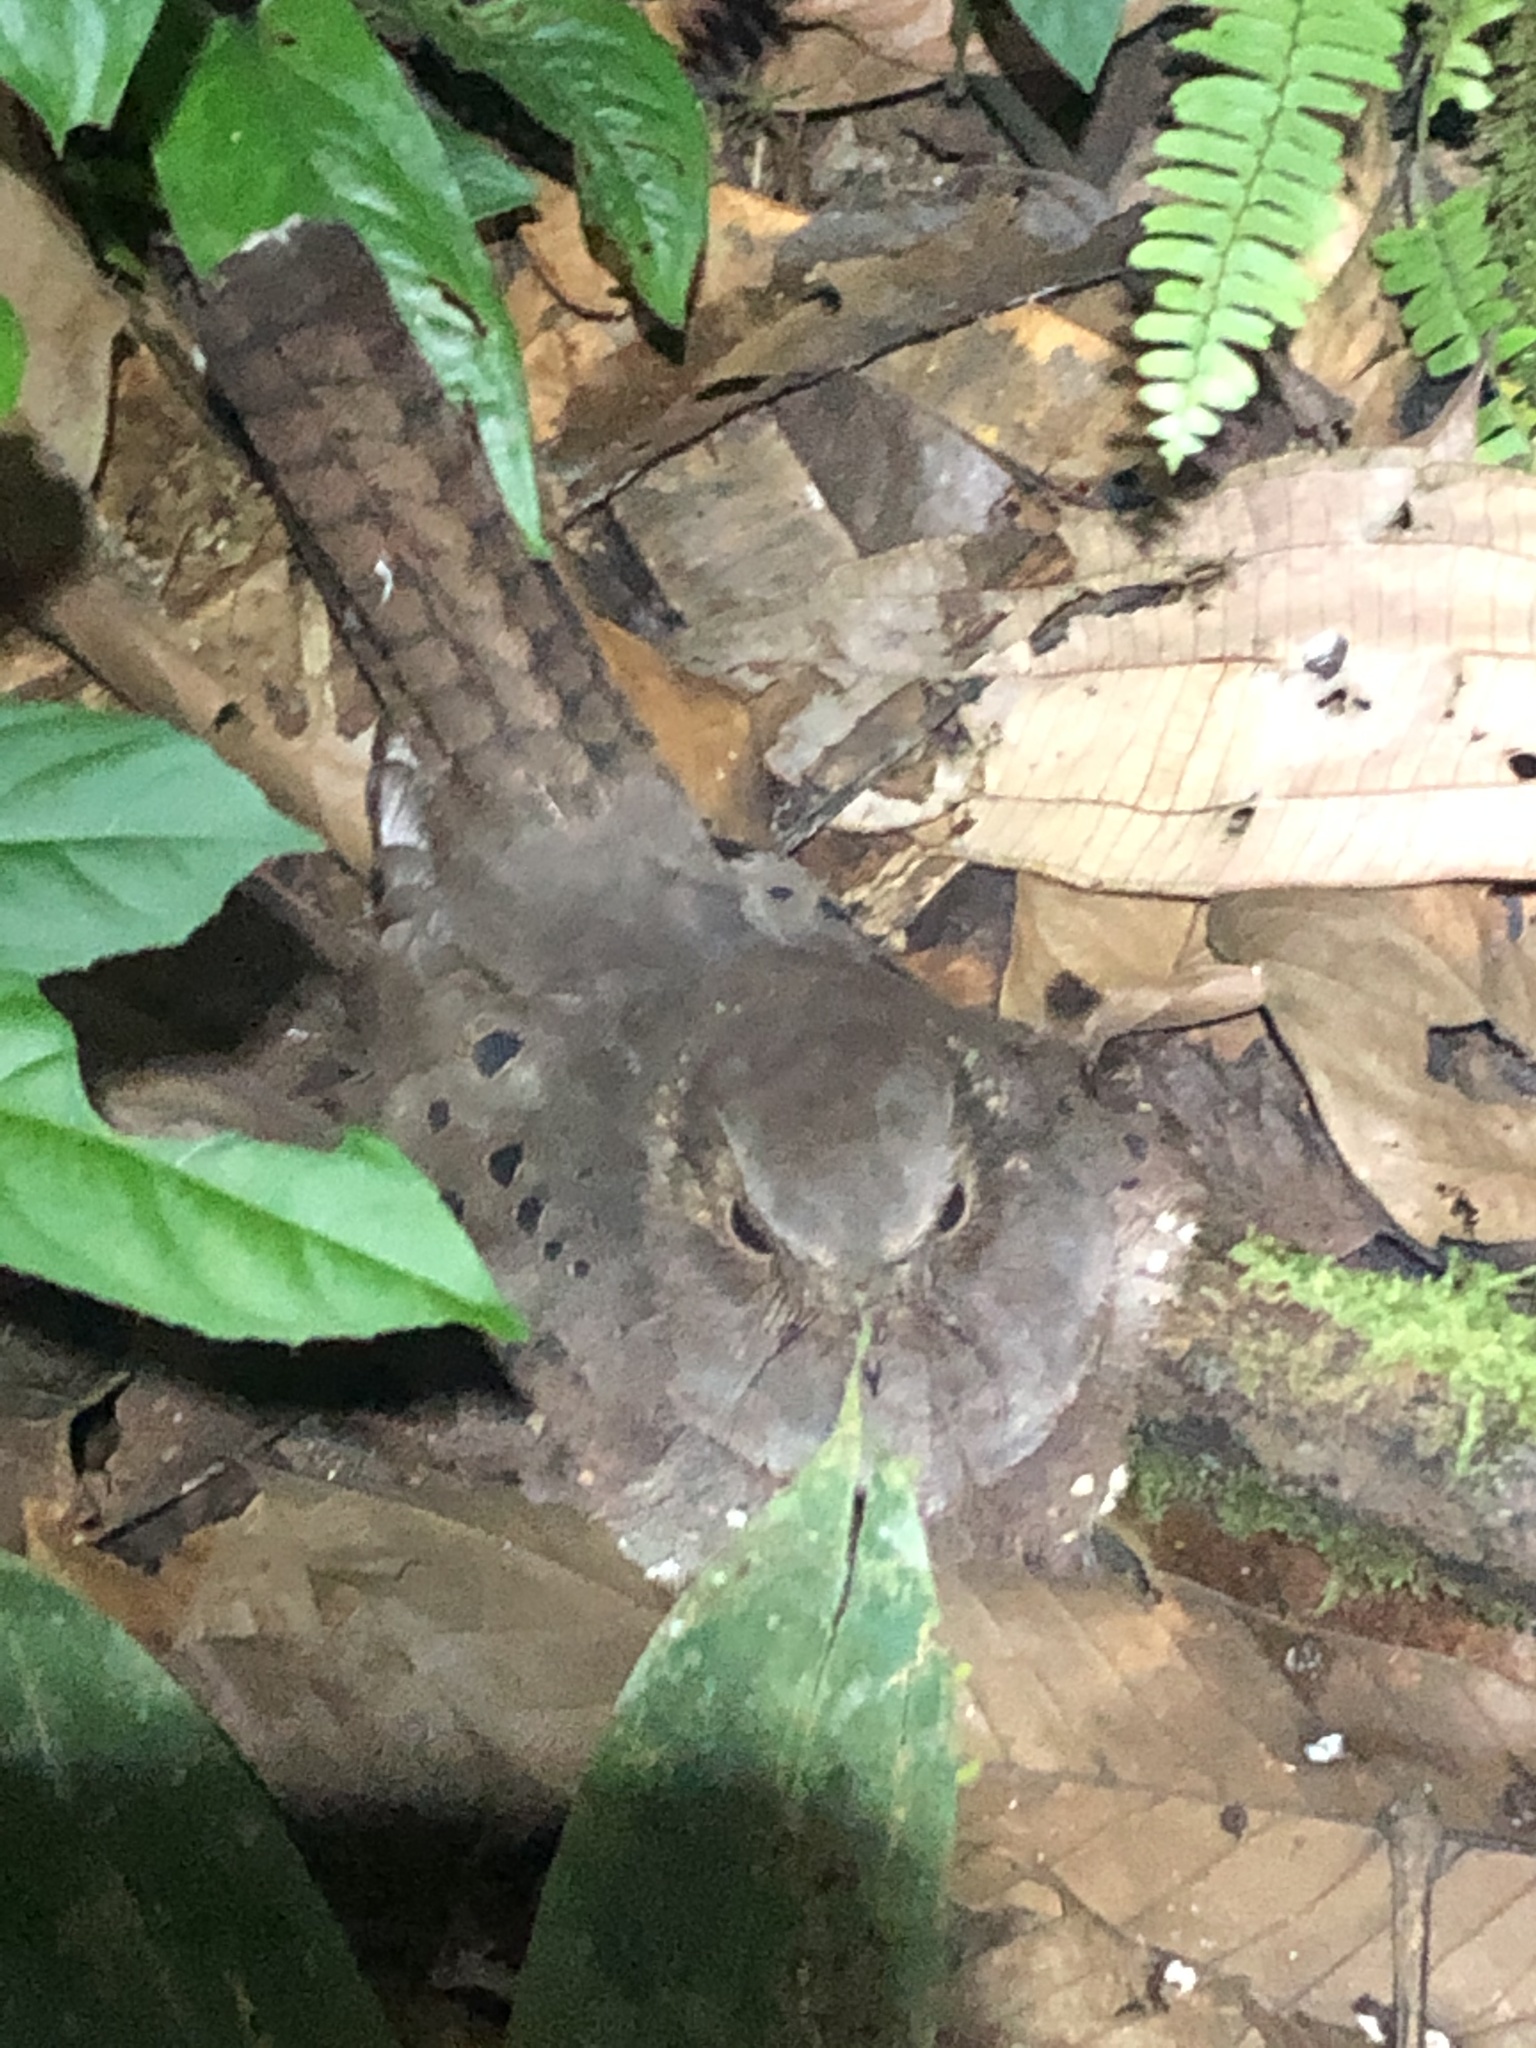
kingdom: Animalia
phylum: Chordata
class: Aves
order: Caprimulgiformes
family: Caprimulgidae
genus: Nyctiphrynus
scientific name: Nyctiphrynus ocellatus
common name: Ocellated poorwill
